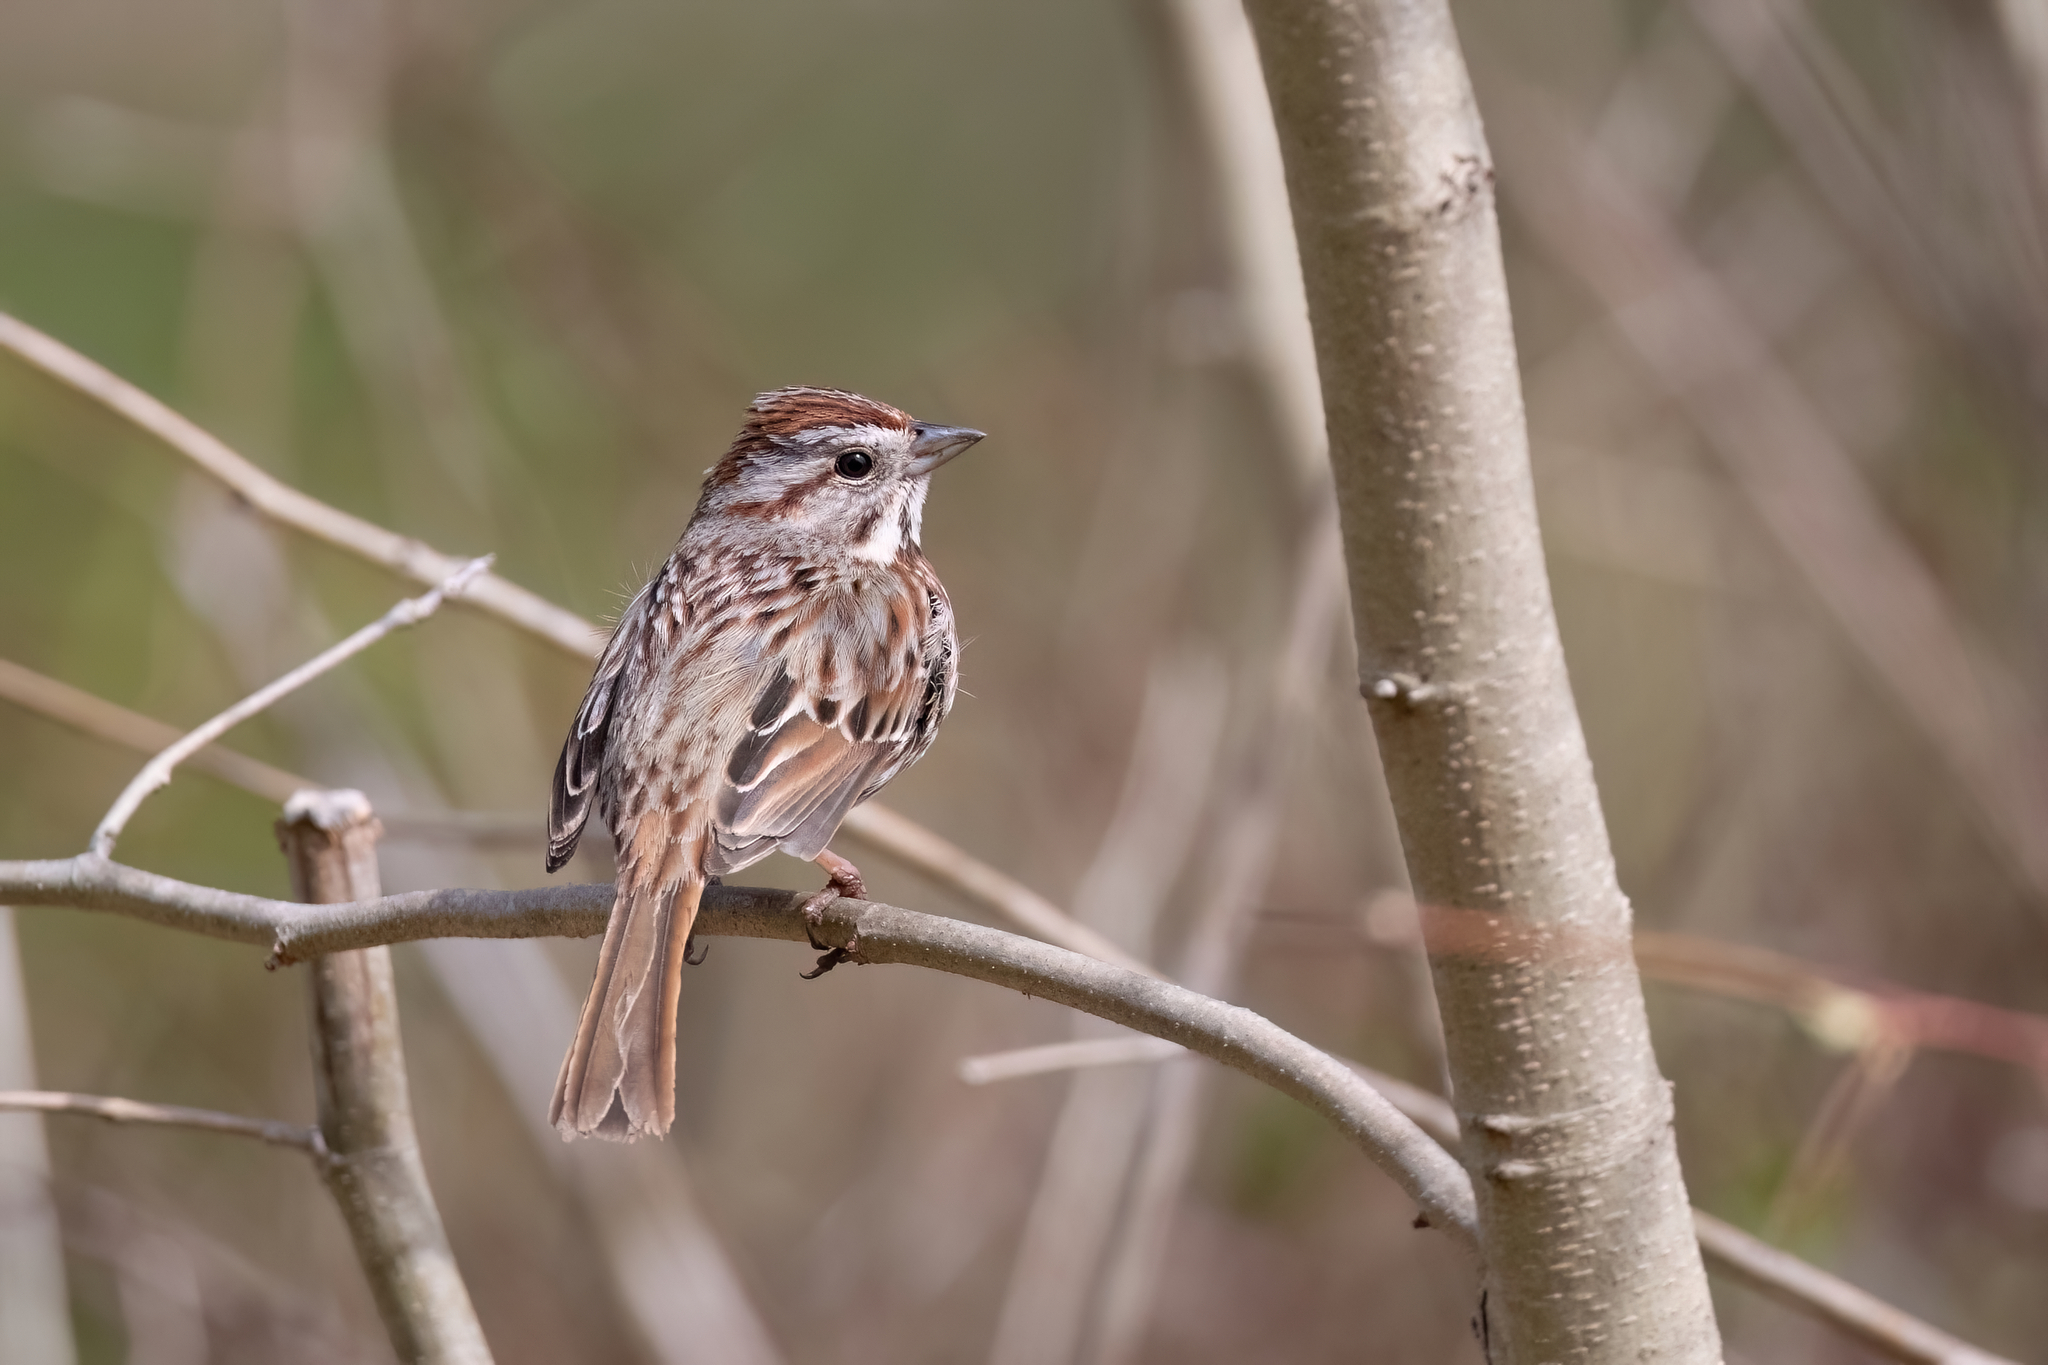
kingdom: Animalia
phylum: Chordata
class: Aves
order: Passeriformes
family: Passerellidae
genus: Melospiza
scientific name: Melospiza melodia
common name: Song sparrow
